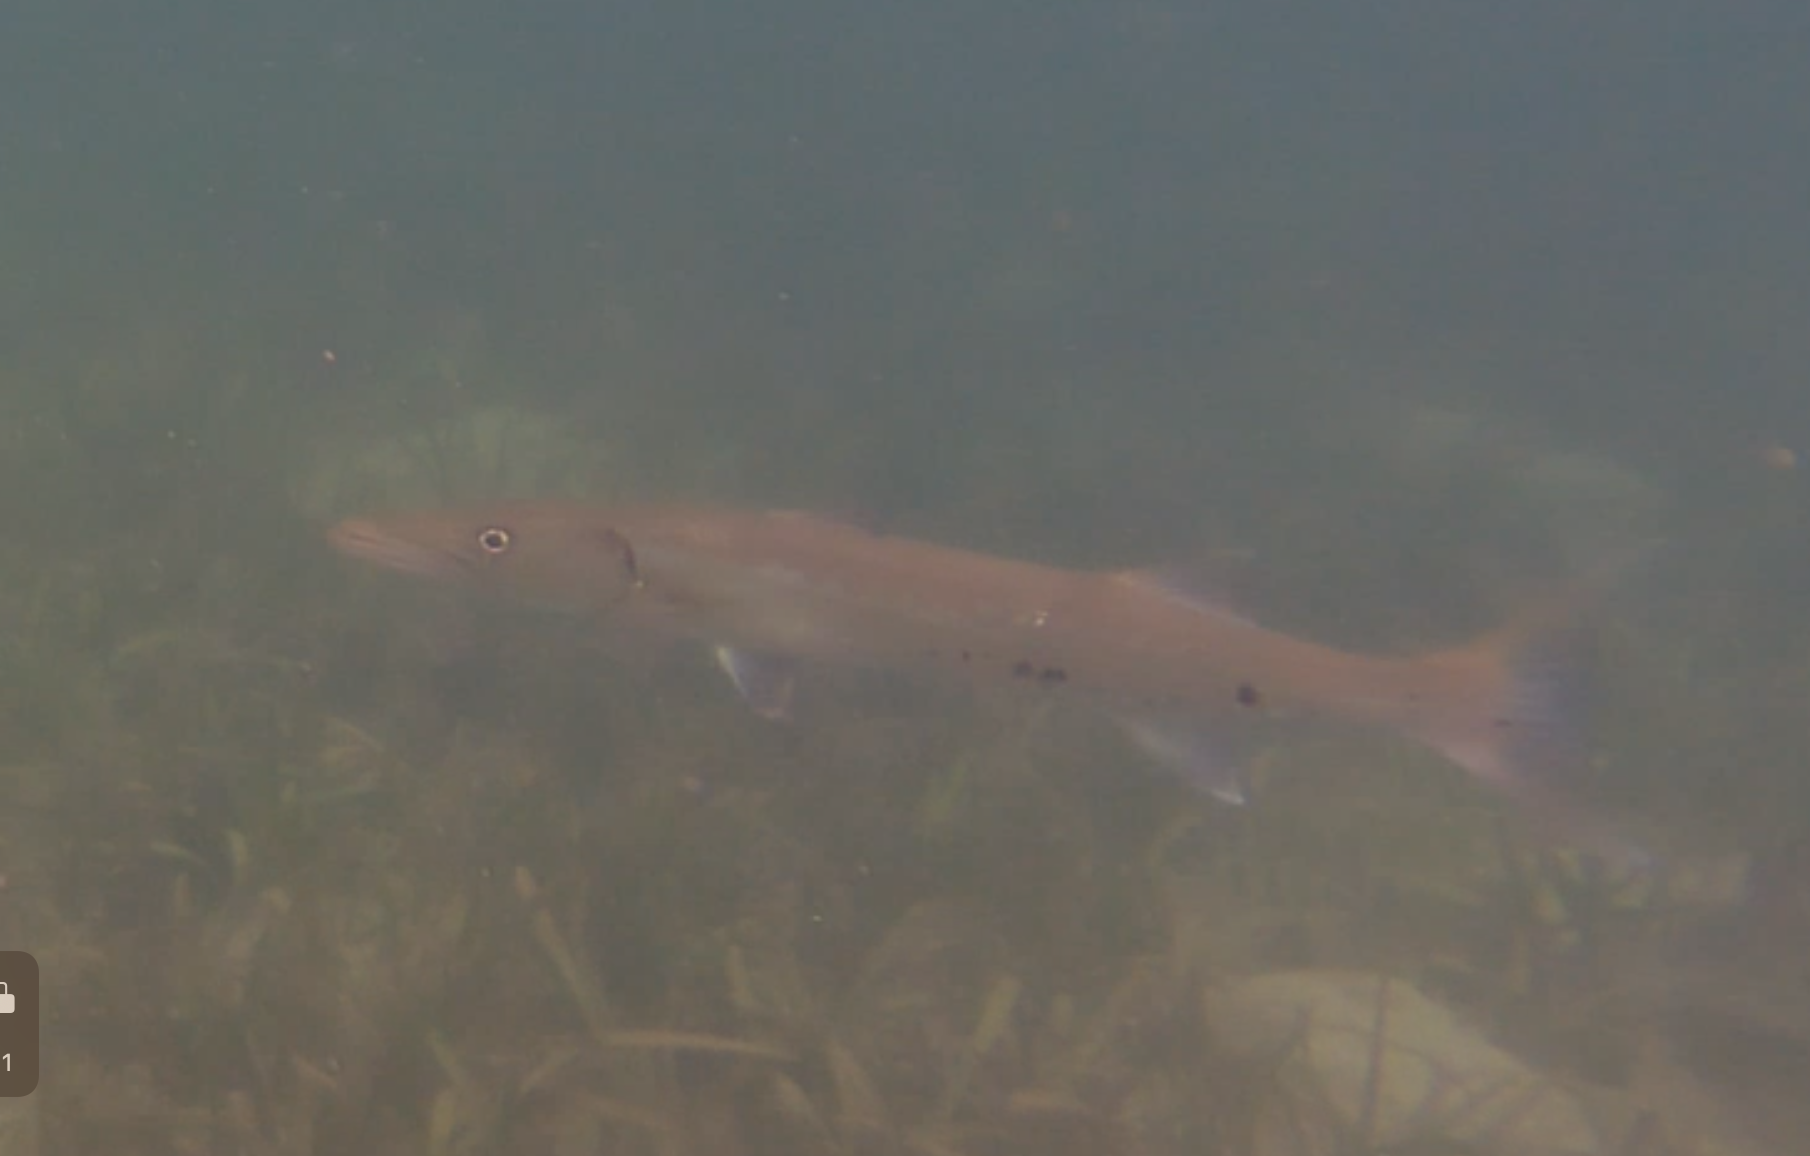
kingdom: Animalia
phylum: Chordata
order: Perciformes
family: Sphyraenidae
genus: Sphyraena
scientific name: Sphyraena barracuda
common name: Great barracuda
